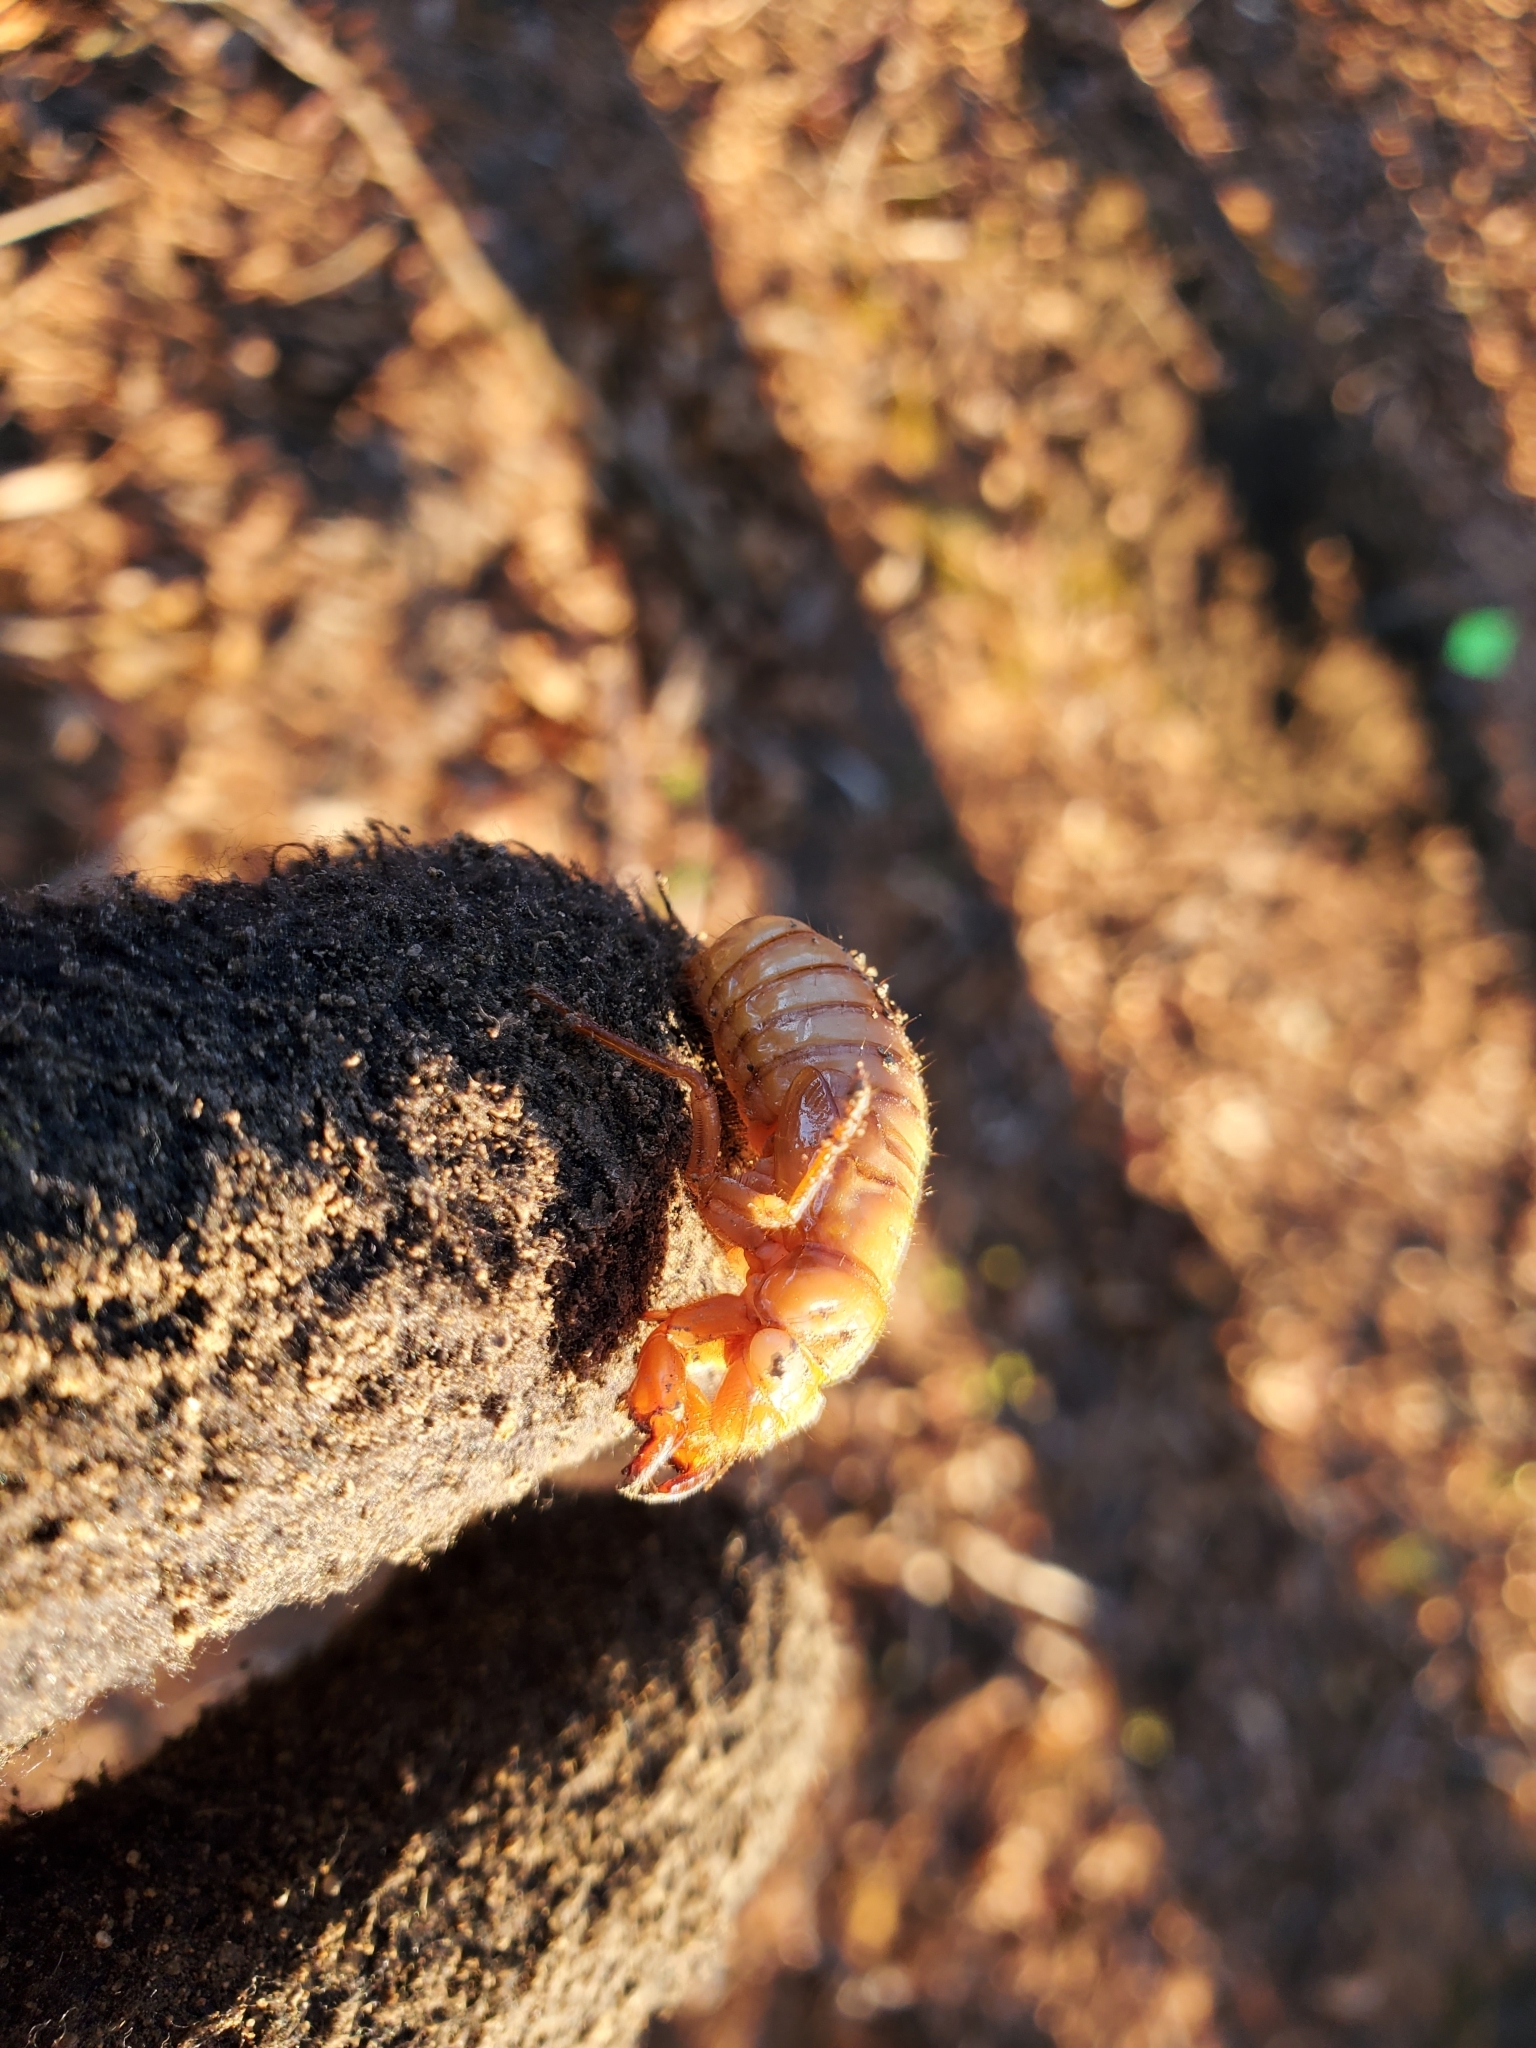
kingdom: Animalia
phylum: Arthropoda
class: Insecta
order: Hemiptera
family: Cicadidae
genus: Magicicada
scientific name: Magicicada
